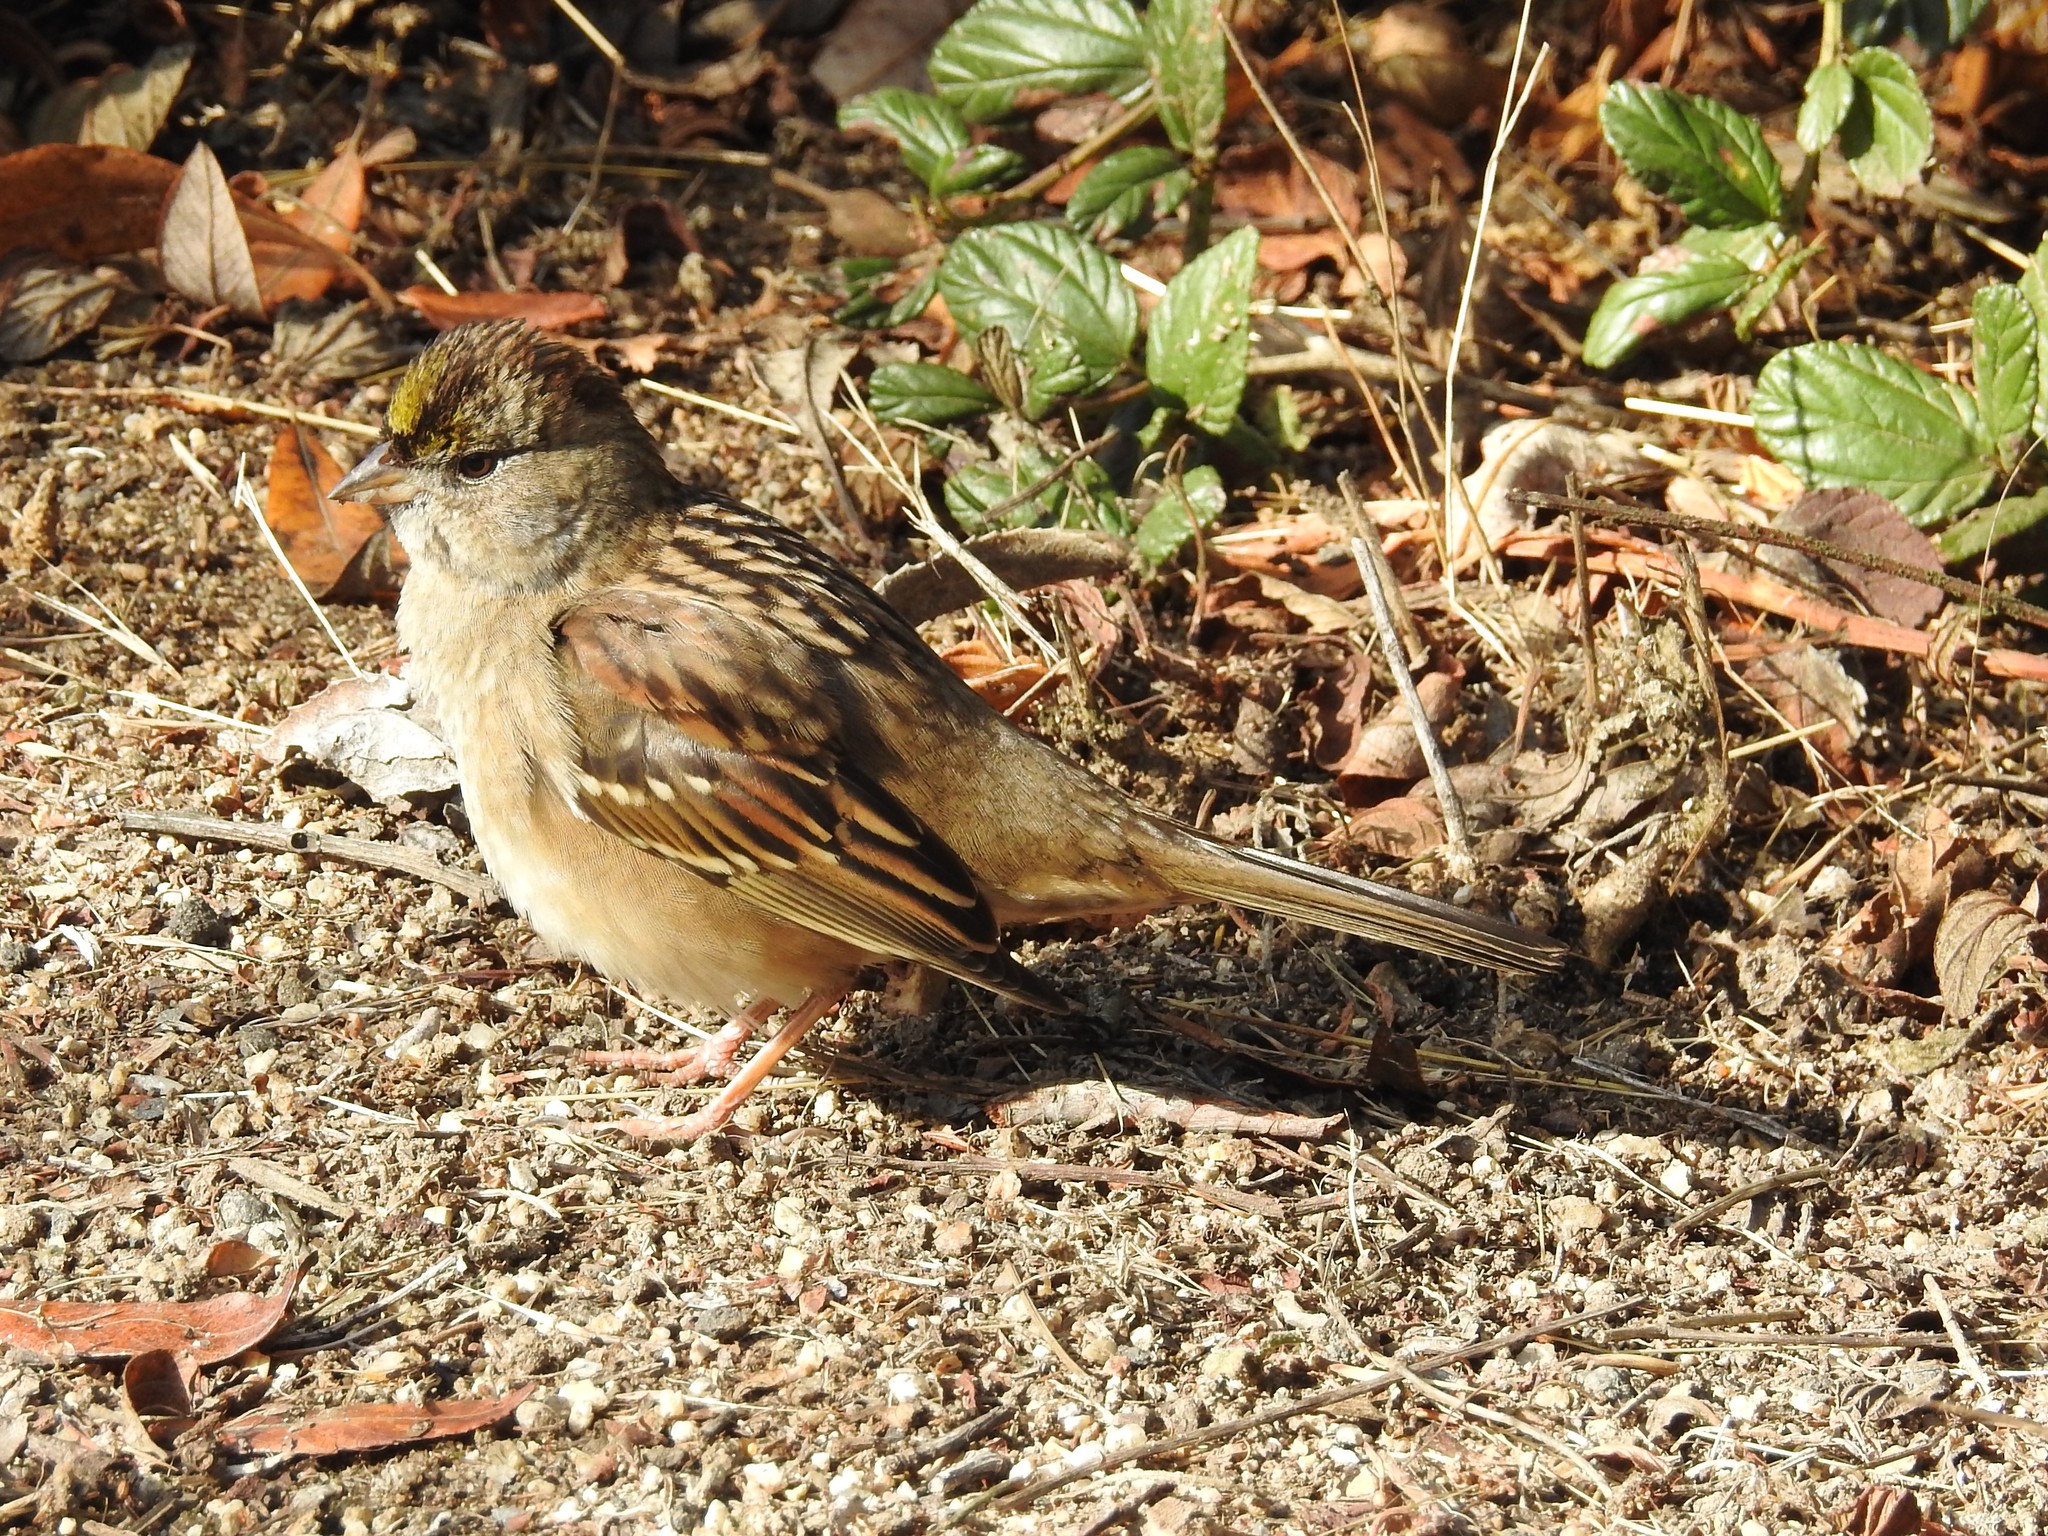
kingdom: Animalia
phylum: Chordata
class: Aves
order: Passeriformes
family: Passerellidae
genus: Zonotrichia
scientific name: Zonotrichia atricapilla
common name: Golden-crowned sparrow
